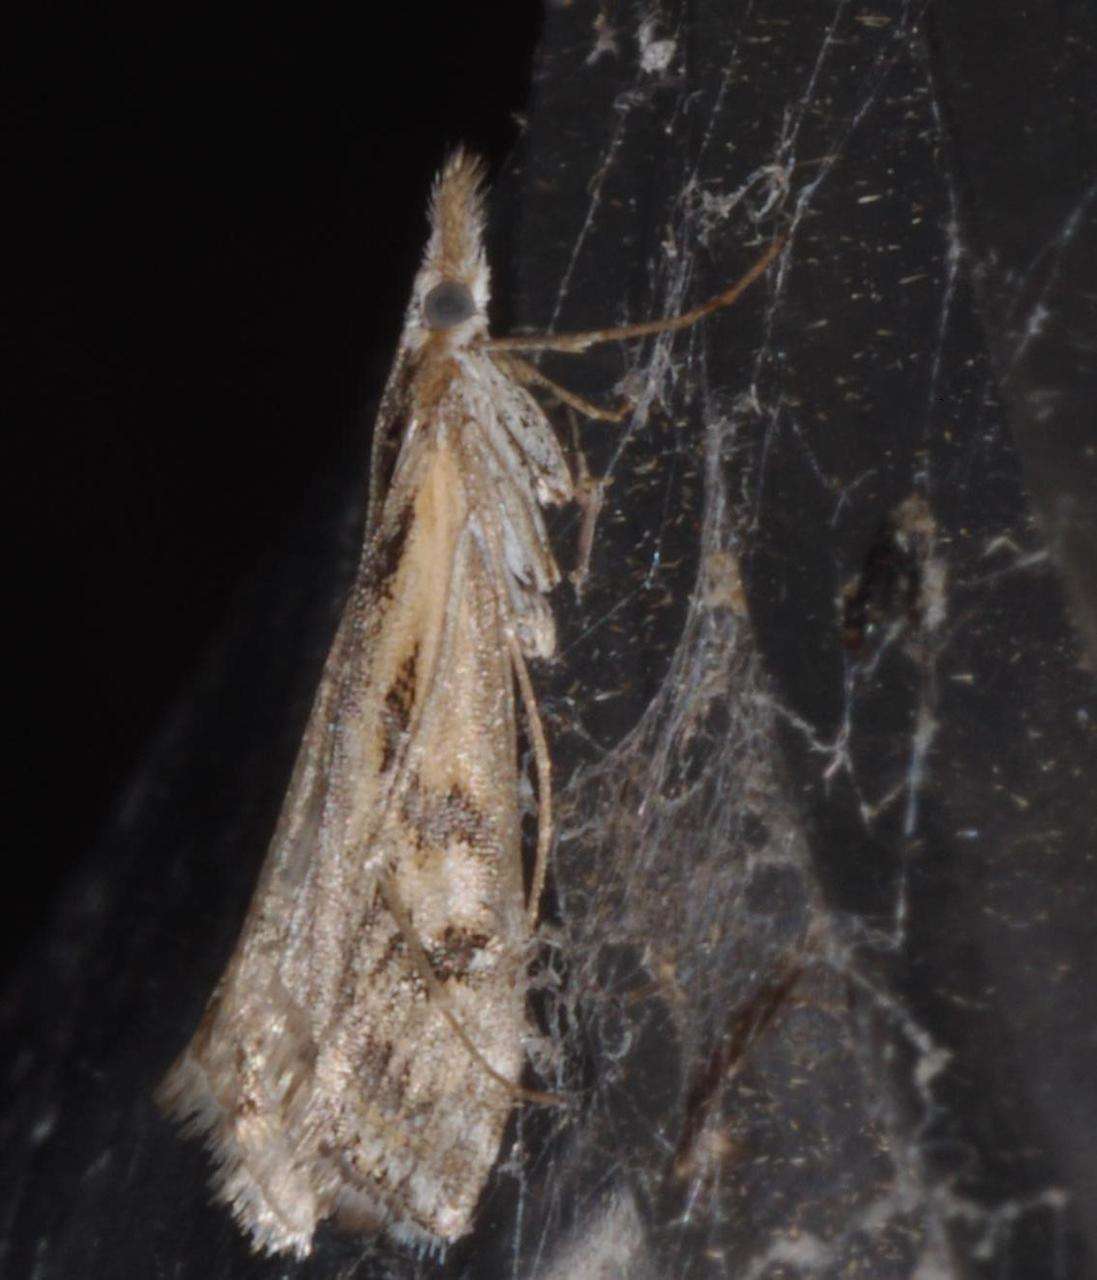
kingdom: Animalia
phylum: Arthropoda
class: Insecta
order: Lepidoptera
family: Crambidae
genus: Hednota
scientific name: Hednota pedionoma
